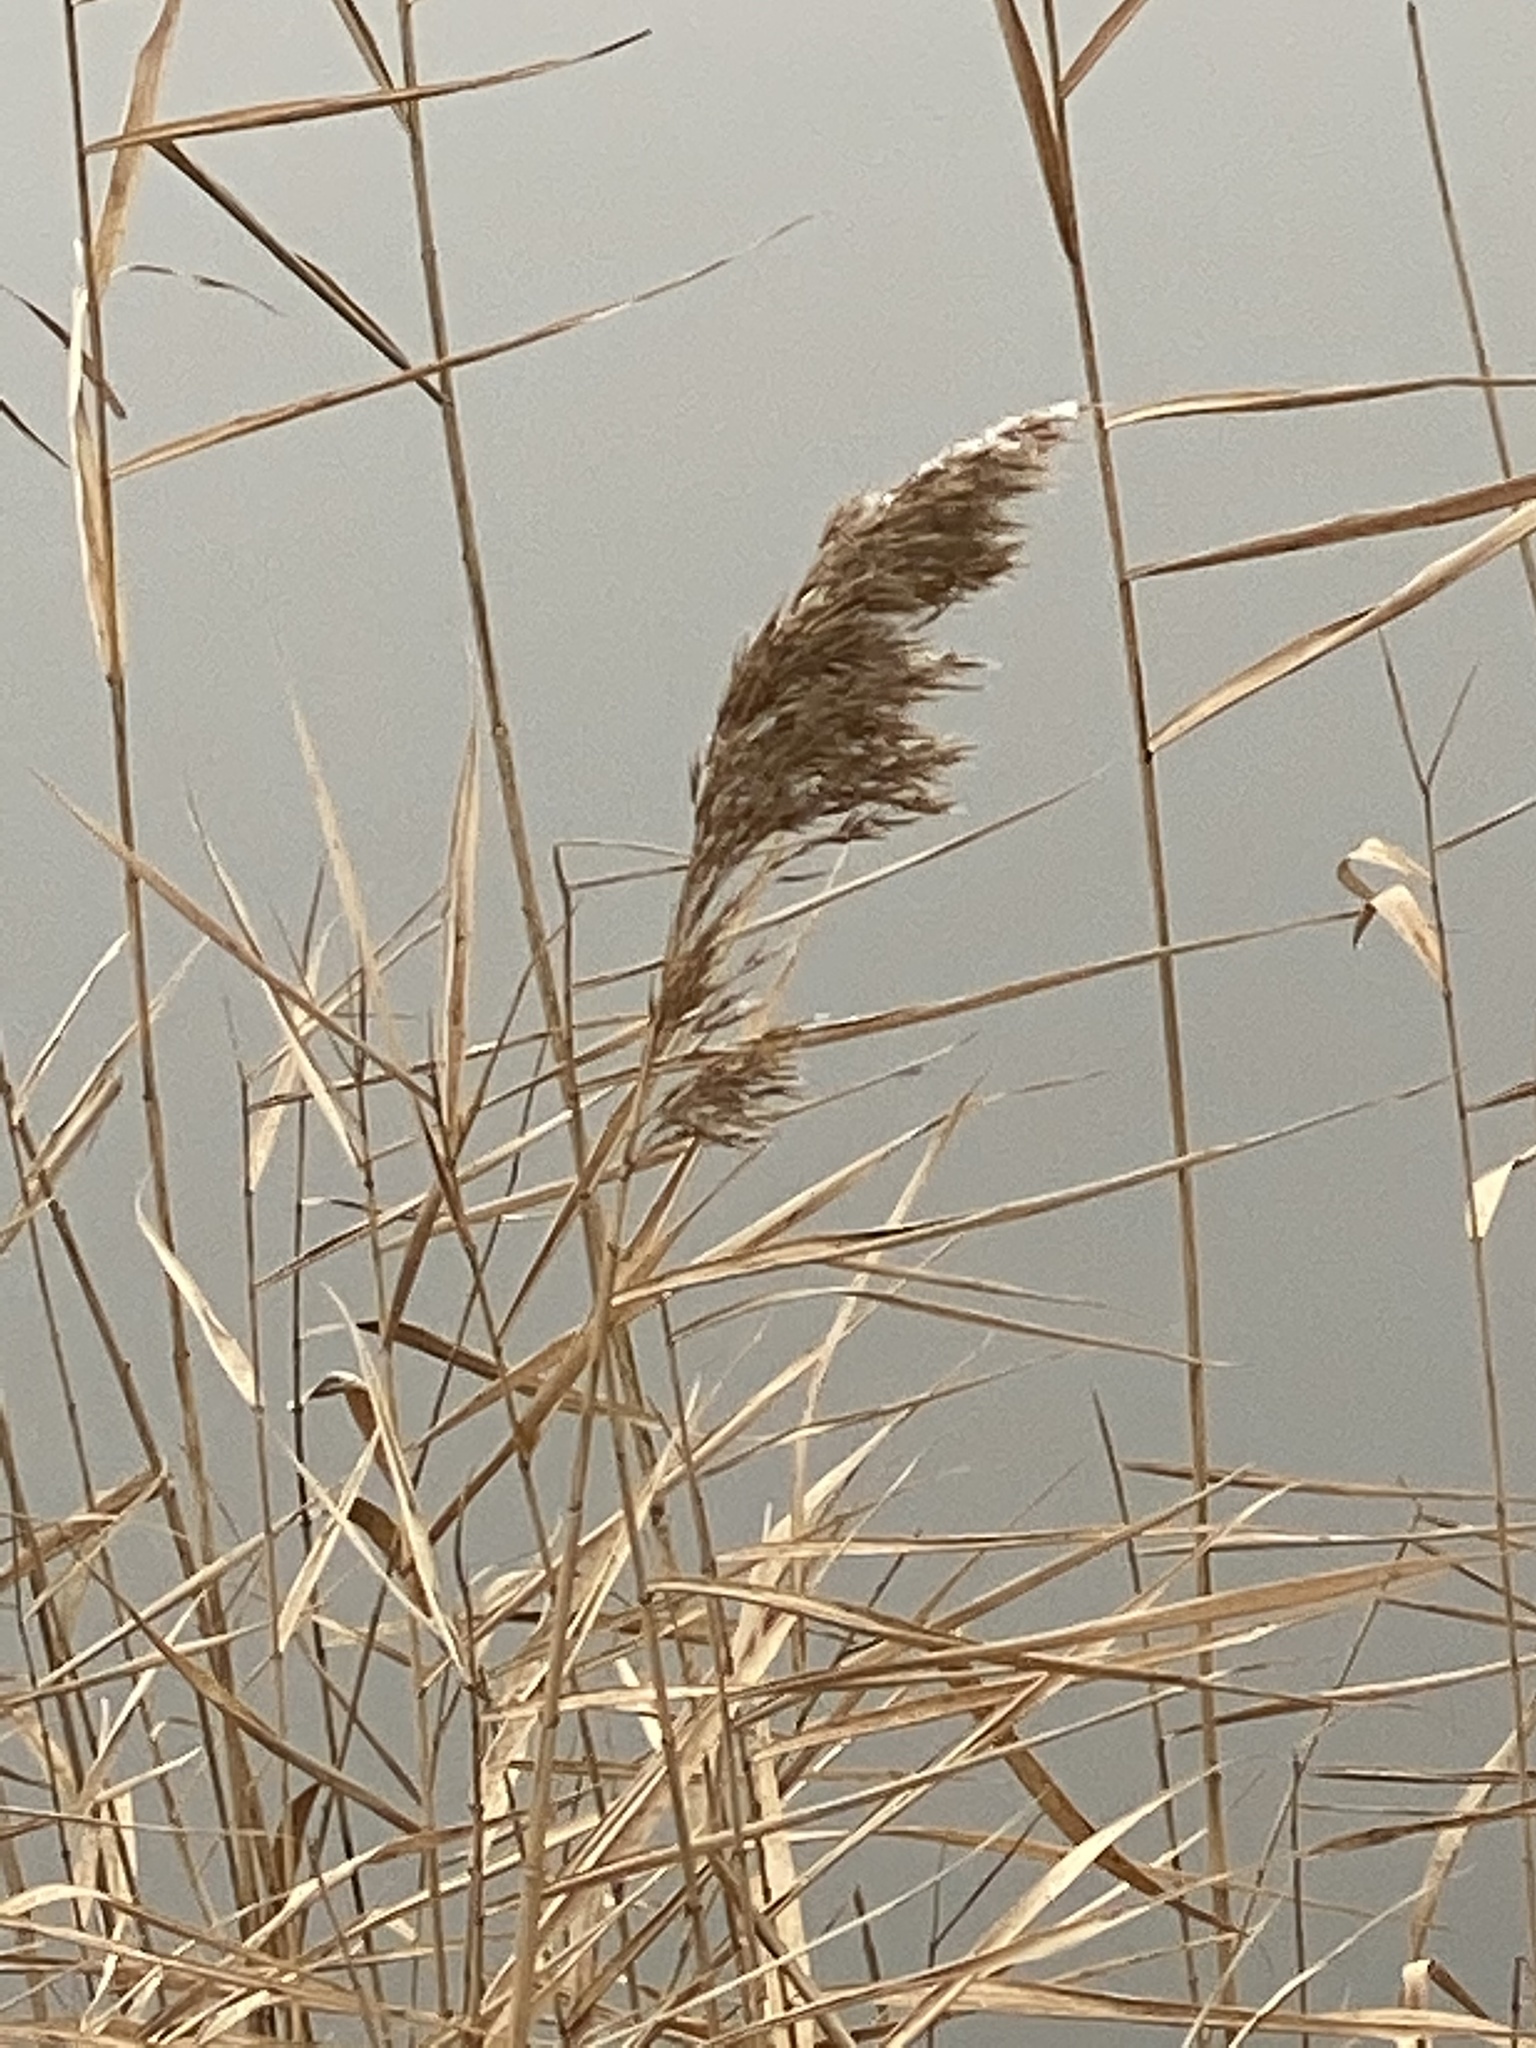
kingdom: Plantae
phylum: Tracheophyta
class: Liliopsida
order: Poales
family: Poaceae
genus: Phragmites
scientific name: Phragmites australis
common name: Common reed
